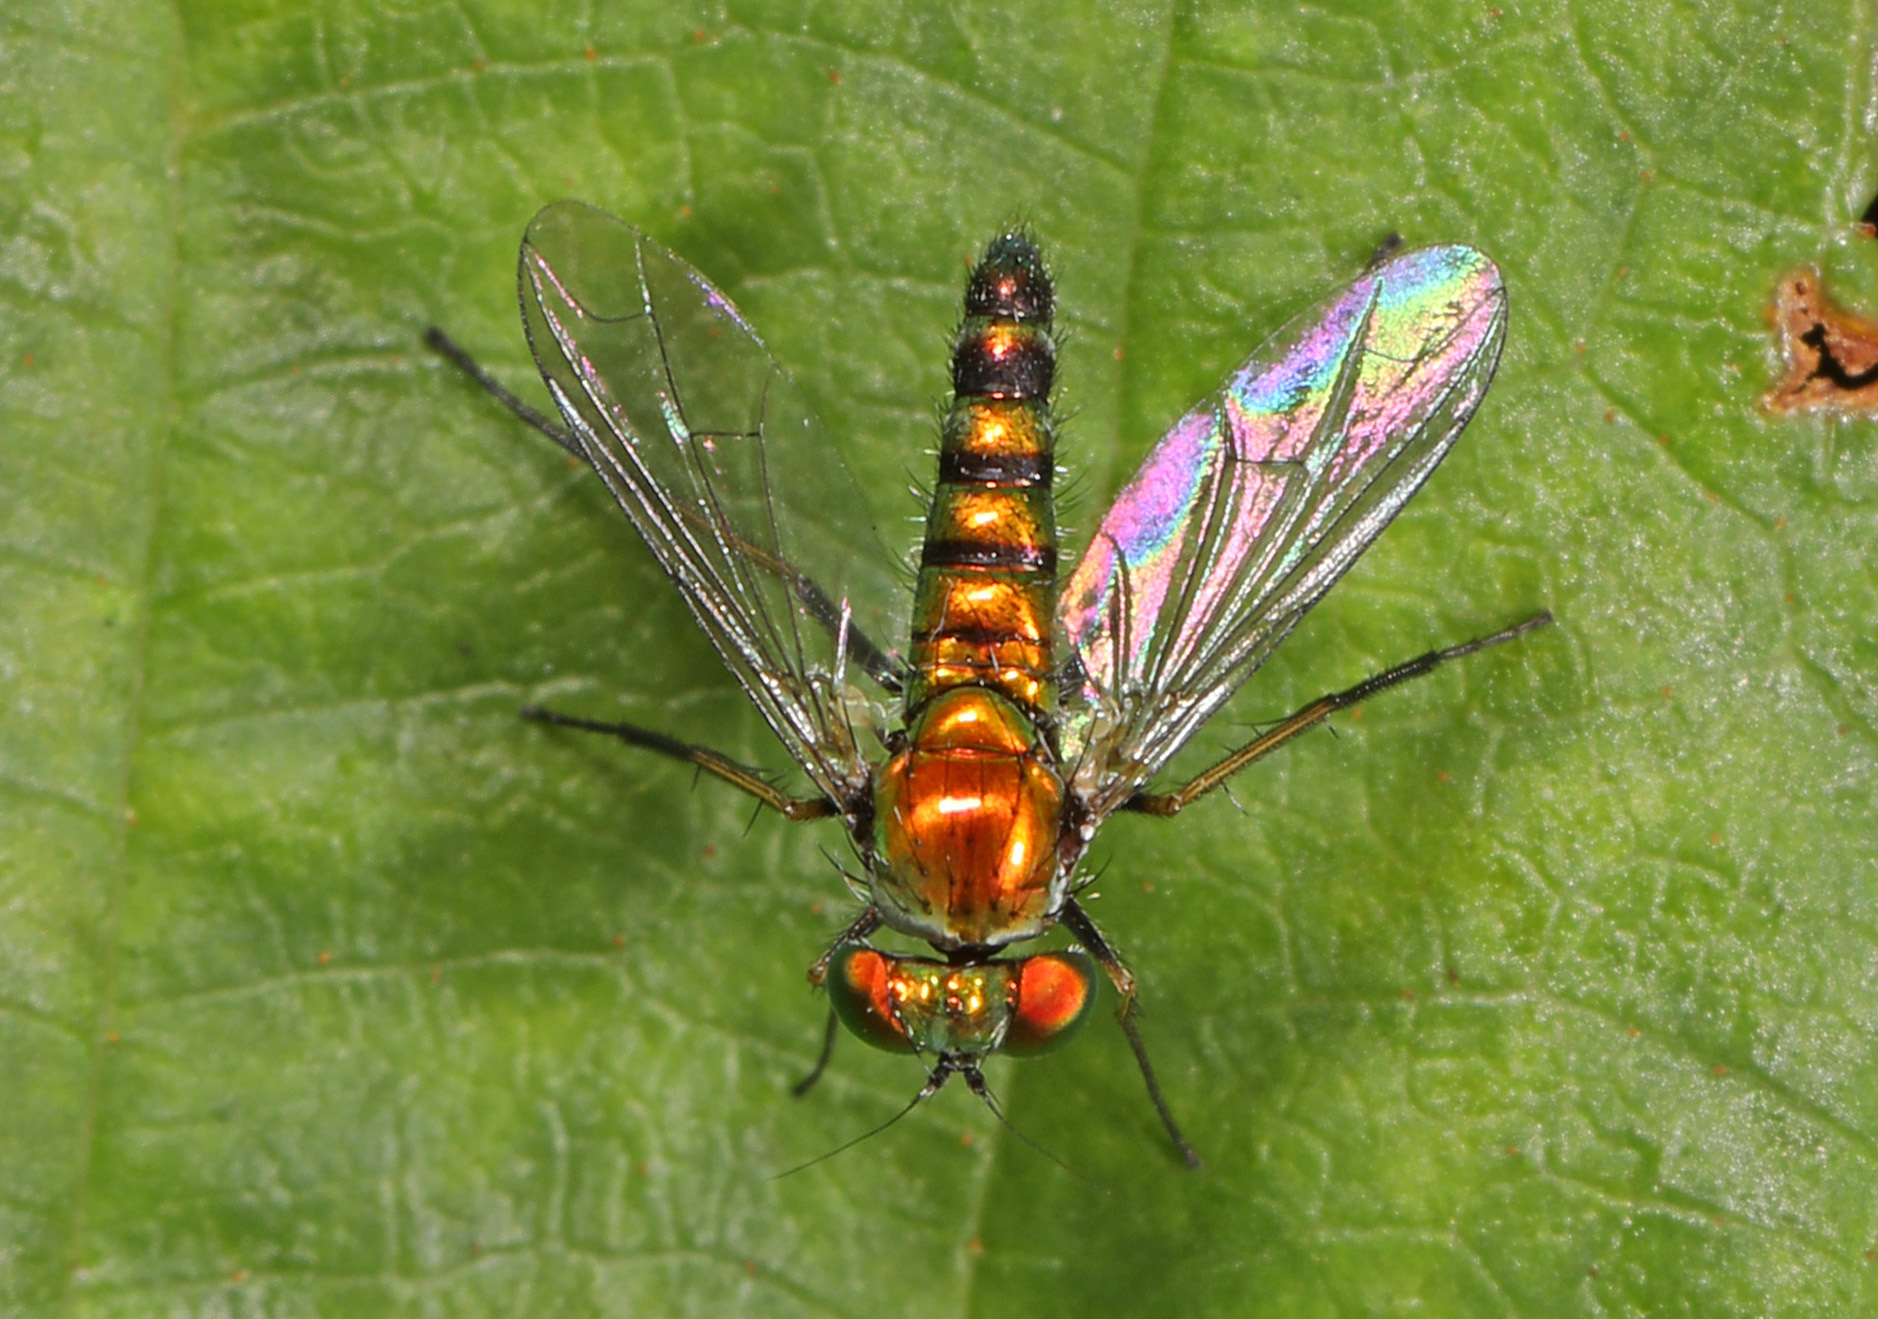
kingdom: Animalia
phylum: Arthropoda
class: Insecta
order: Diptera
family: Dolichopodidae
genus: Condylostylus
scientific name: Condylostylus connectans
